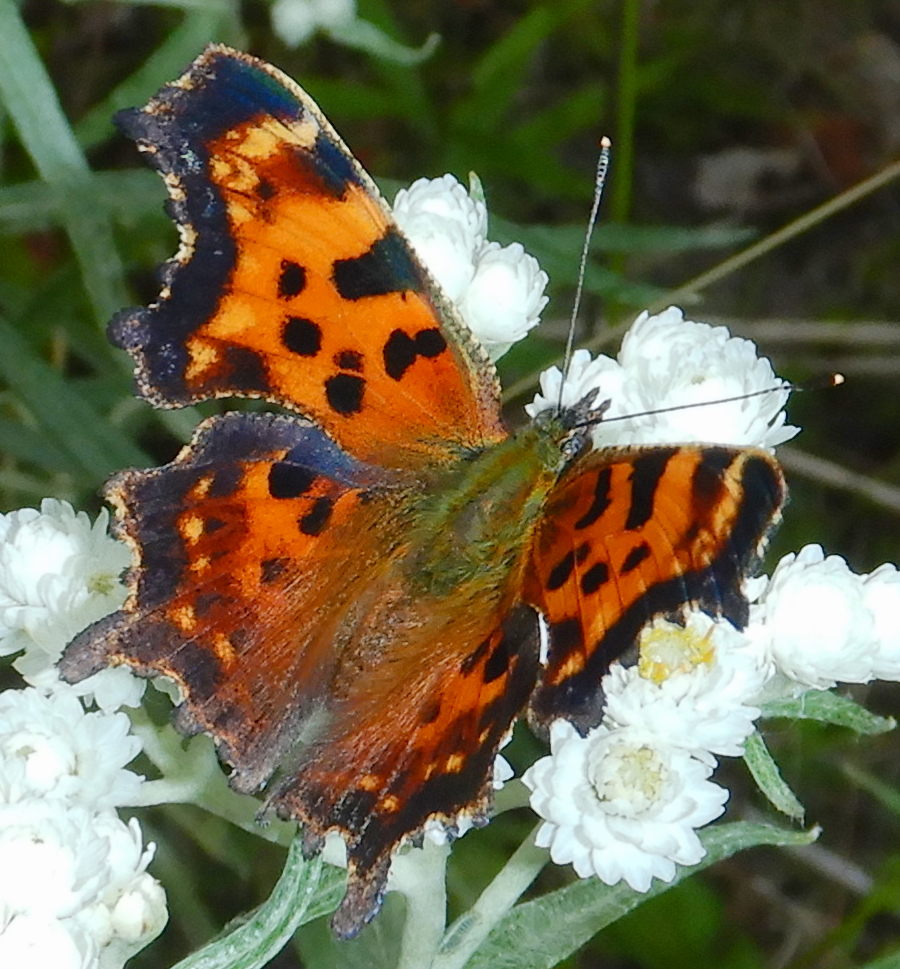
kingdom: Animalia
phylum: Arthropoda
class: Insecta
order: Lepidoptera
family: Nymphalidae
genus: Polygonia
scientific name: Polygonia faunus
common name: Green comma
